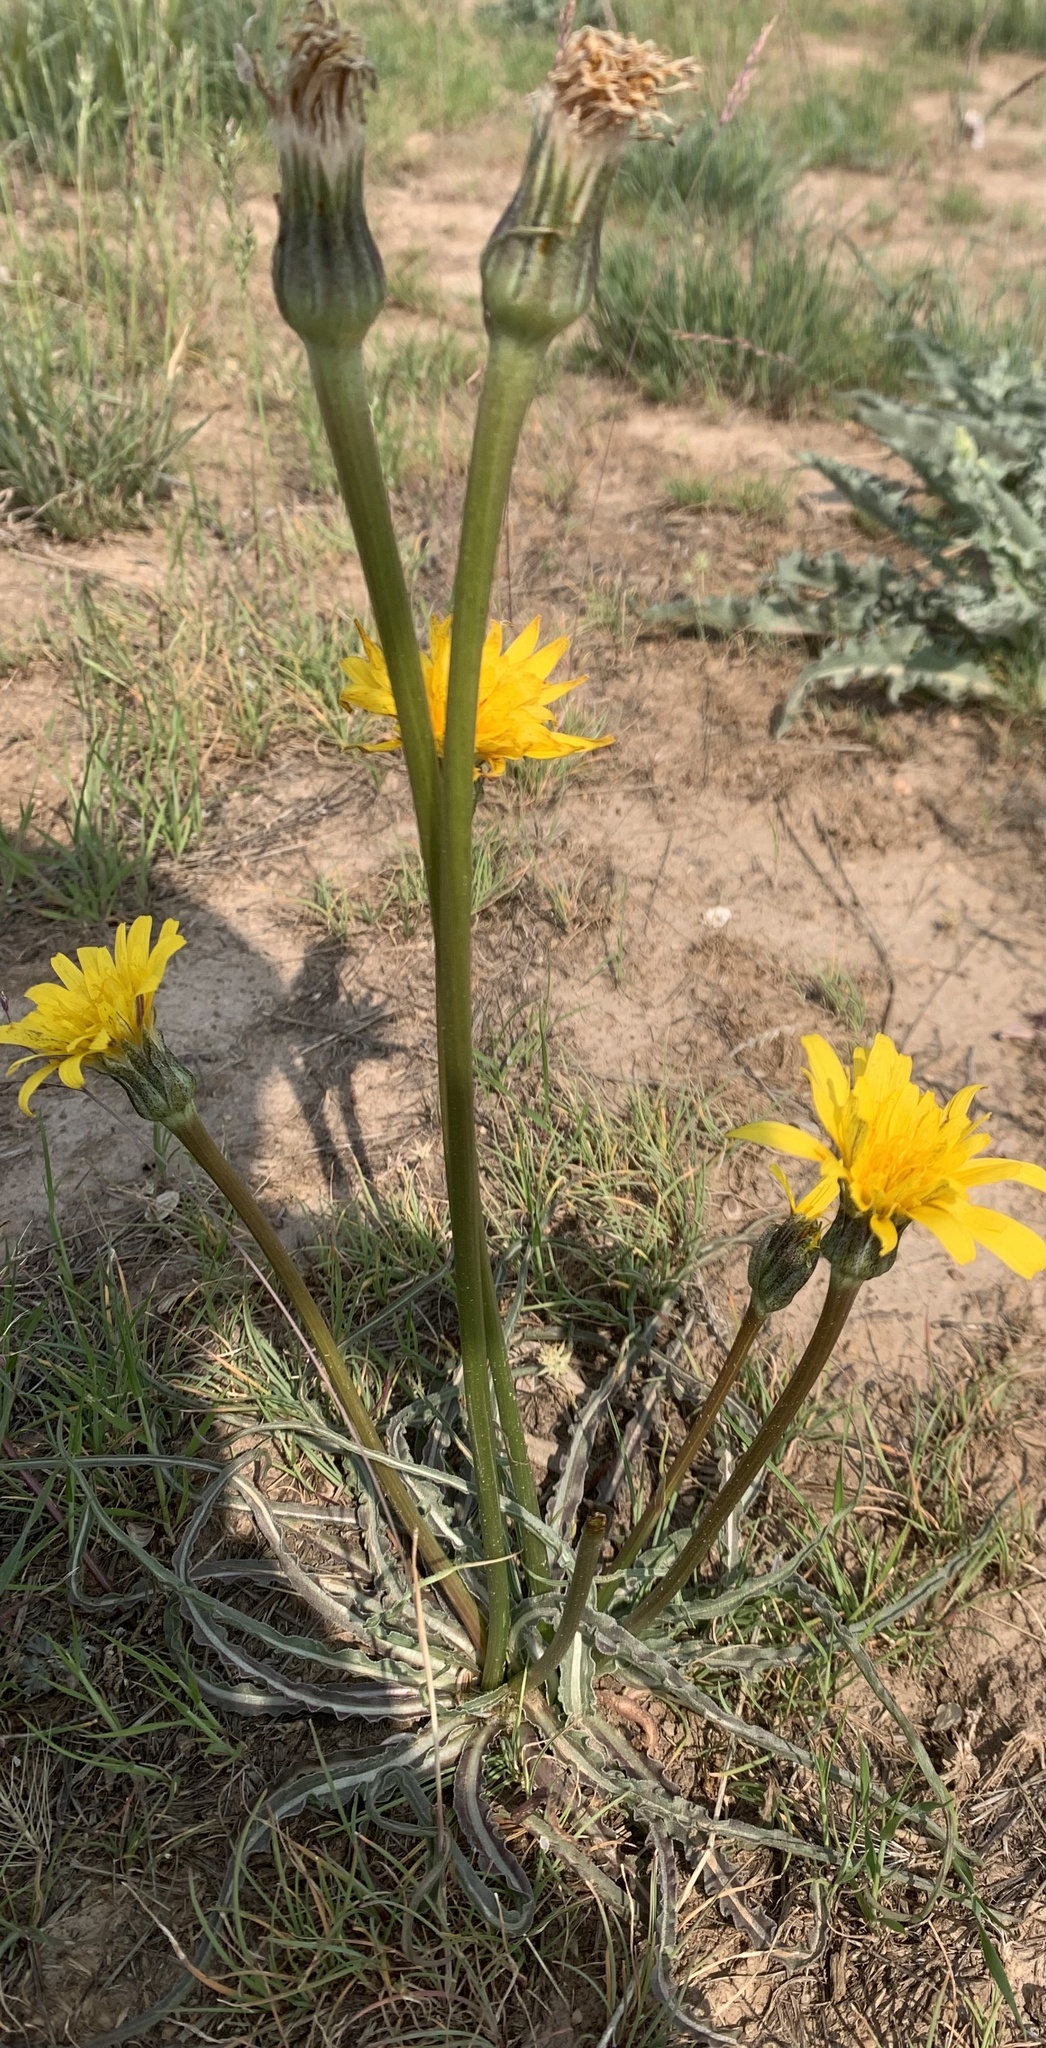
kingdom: Plantae
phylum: Tracheophyta
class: Magnoliopsida
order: Asterales
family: Asteraceae
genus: Microseris
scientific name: Microseris troximoides
